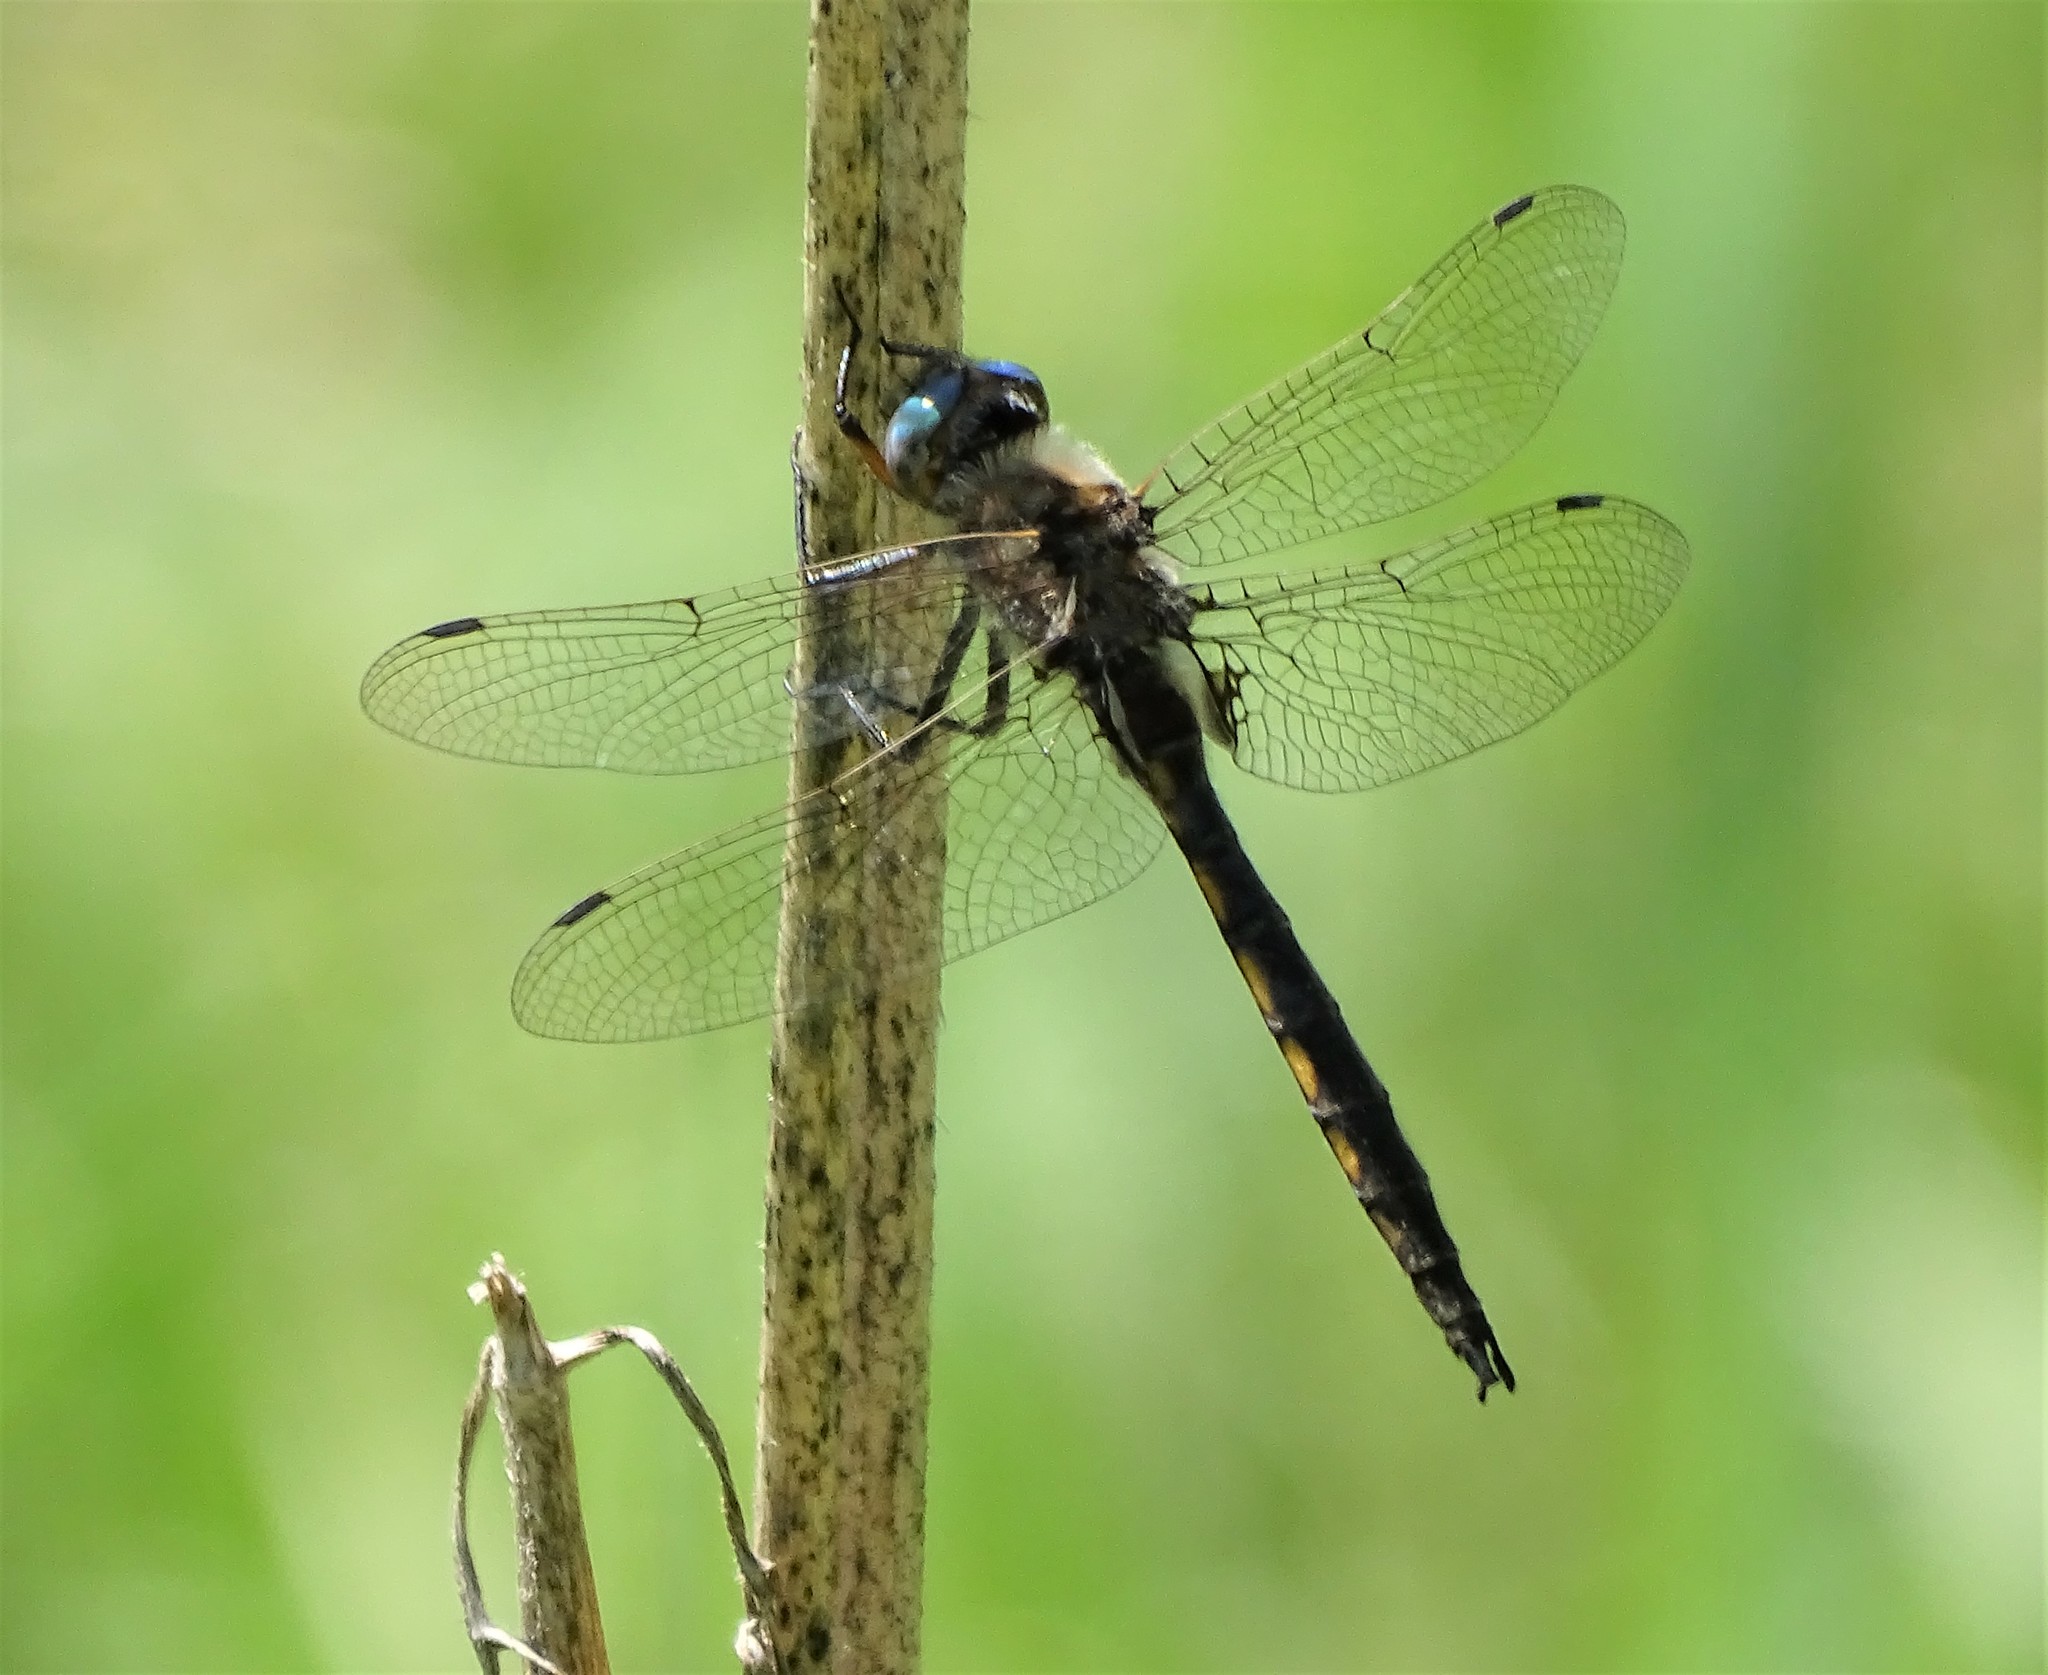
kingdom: Animalia
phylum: Arthropoda
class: Insecta
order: Odonata
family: Corduliidae
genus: Epitheca
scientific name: Epitheca canis
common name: Beaverpond baskettail
